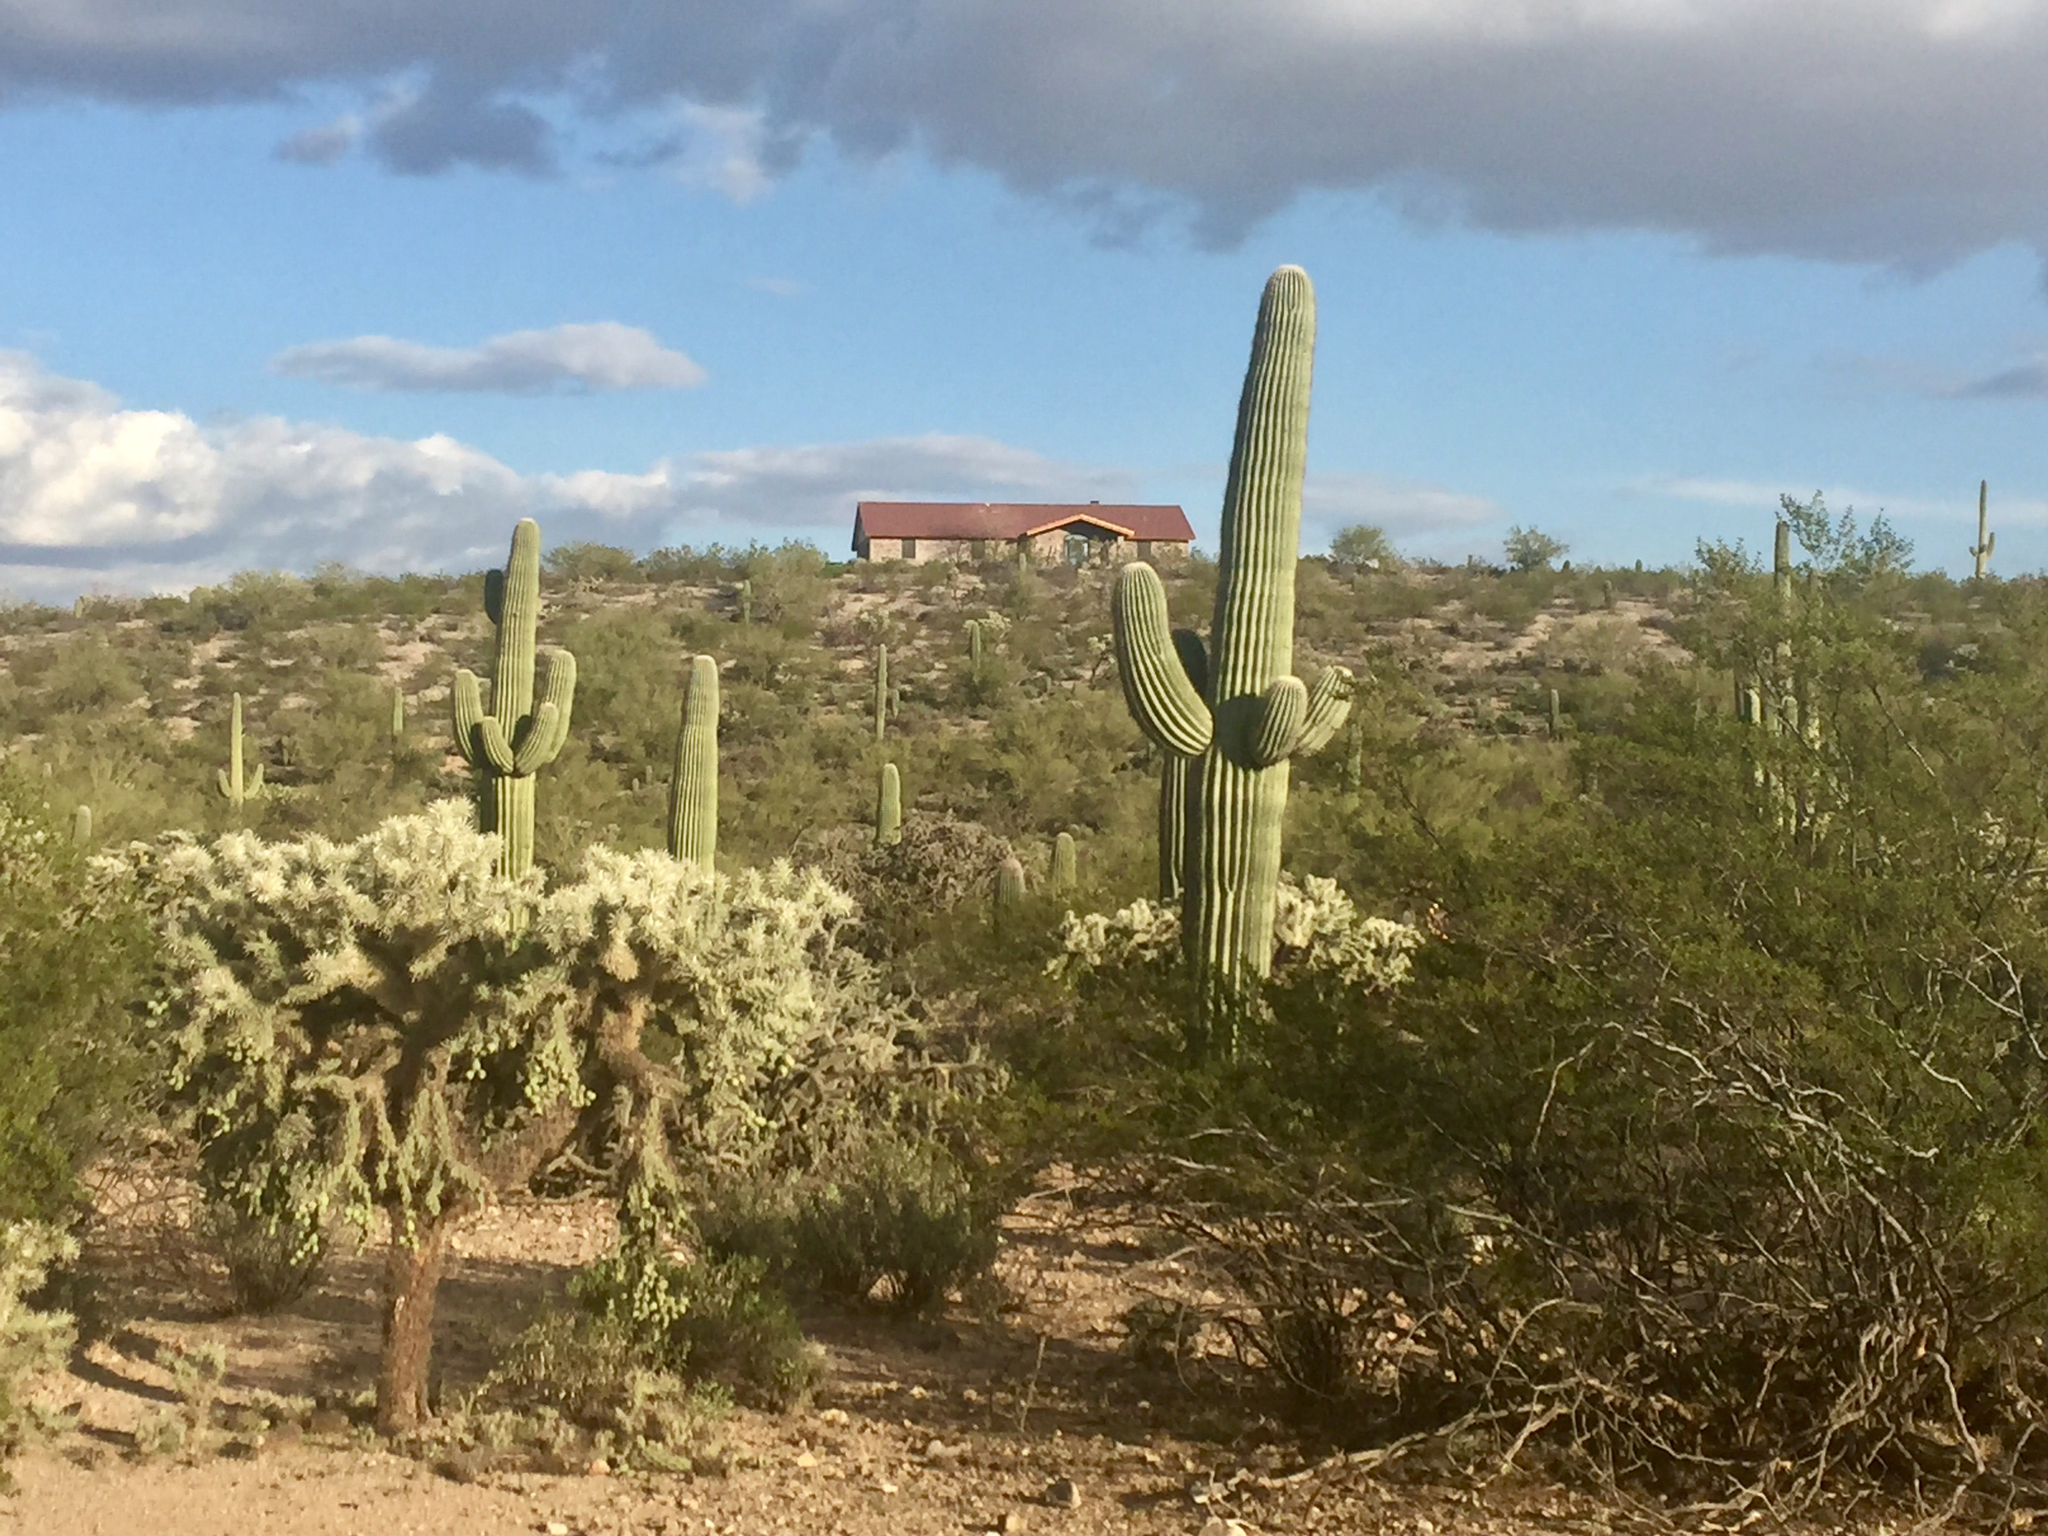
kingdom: Plantae
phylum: Tracheophyta
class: Magnoliopsida
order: Caryophyllales
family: Cactaceae
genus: Carnegiea
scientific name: Carnegiea gigantea
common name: Saguaro
